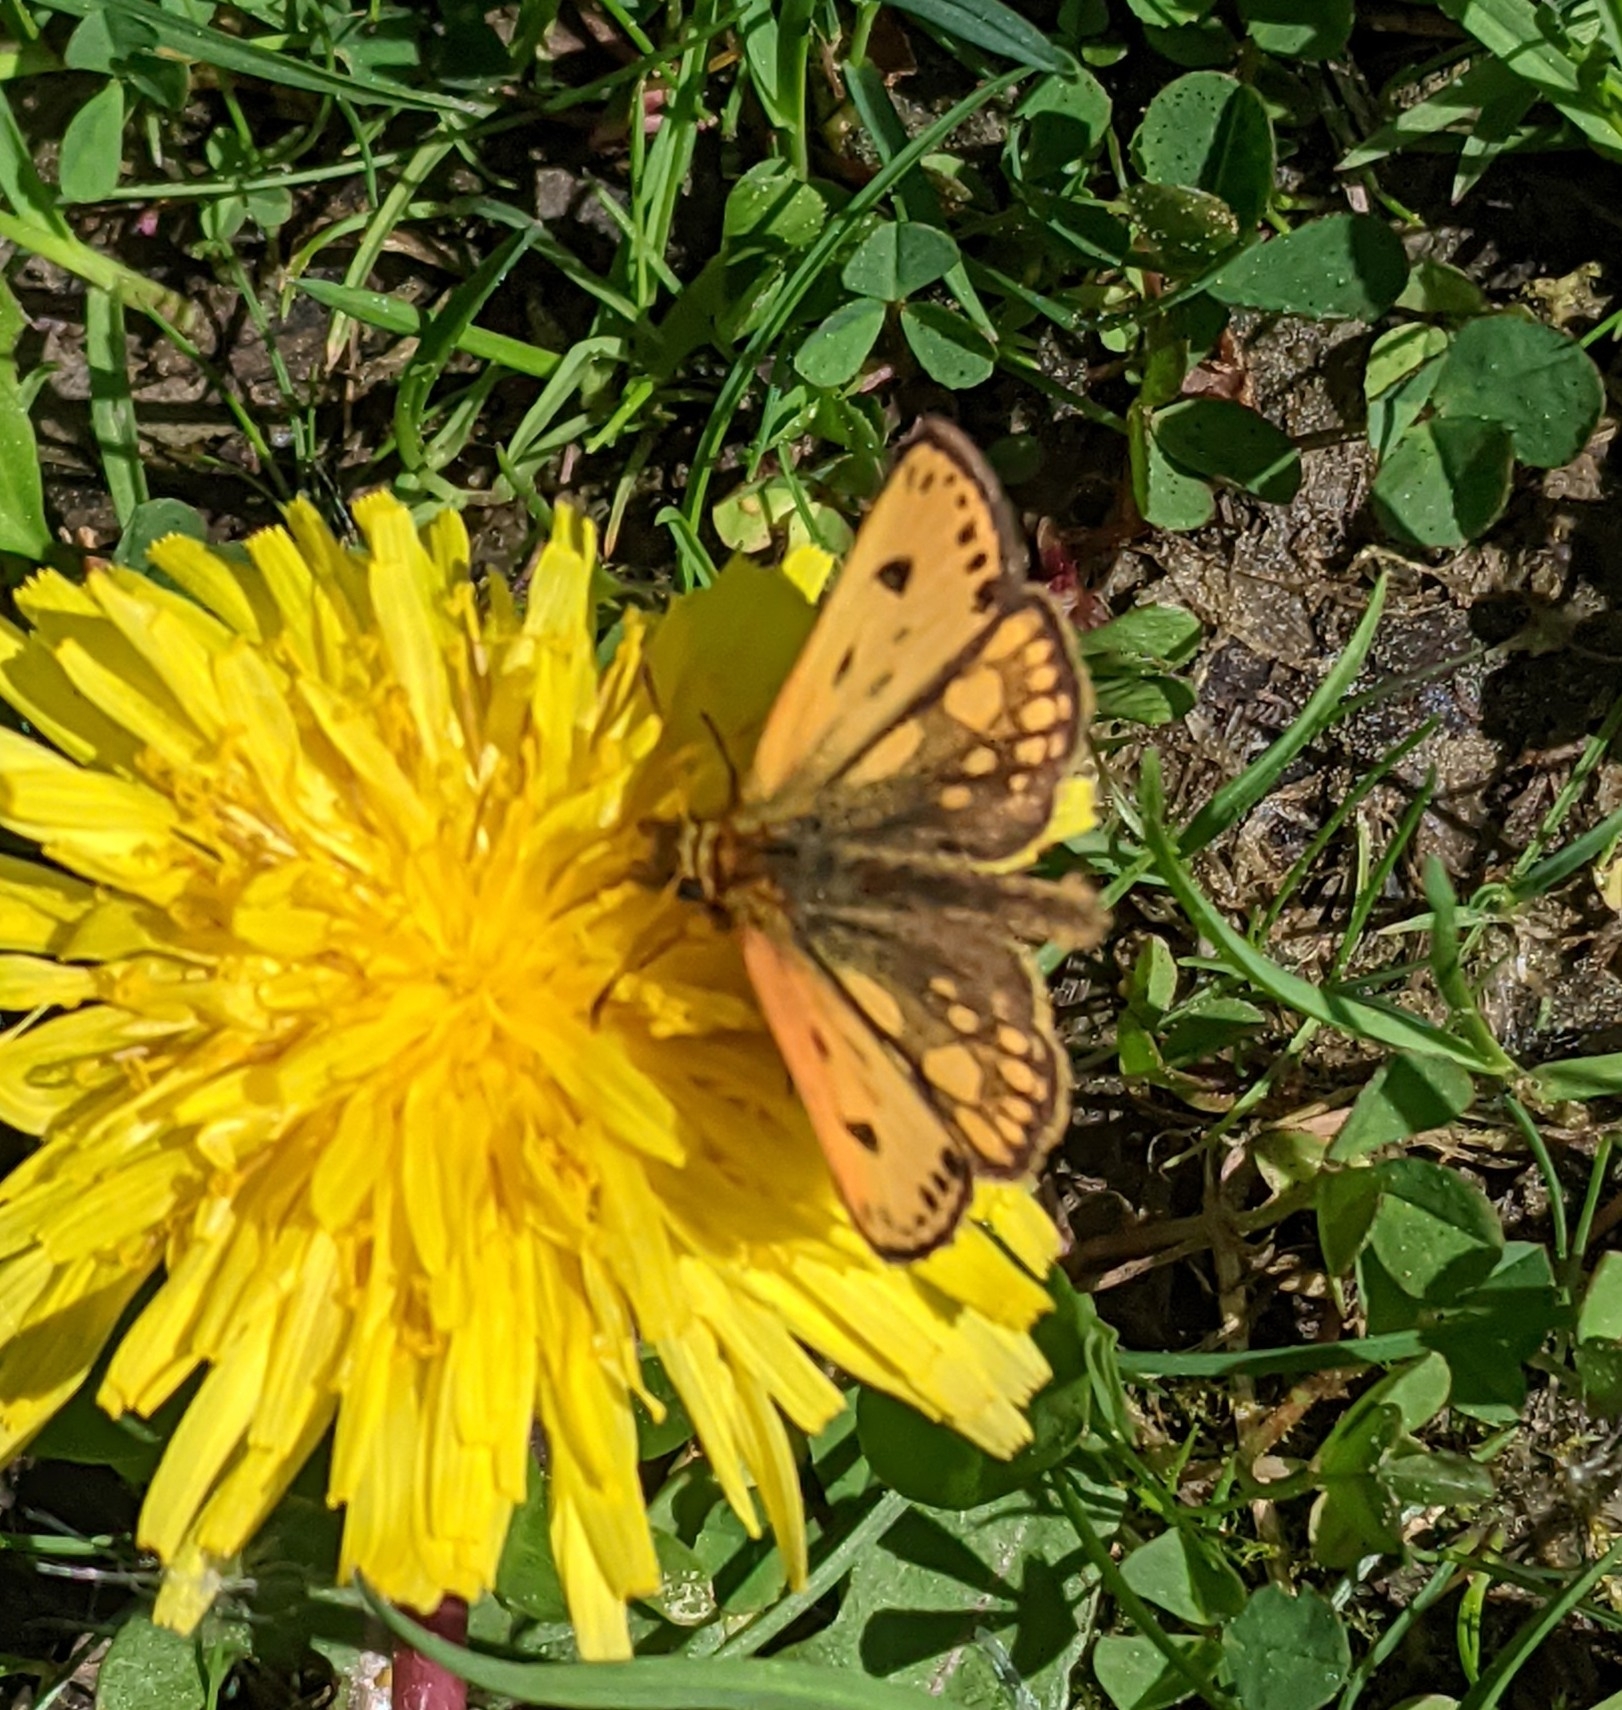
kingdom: Animalia
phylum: Arthropoda
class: Insecta
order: Lepidoptera
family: Hesperiidae
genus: Carterocephalus
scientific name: Carterocephalus silvicola
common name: Northern chequered skipper
